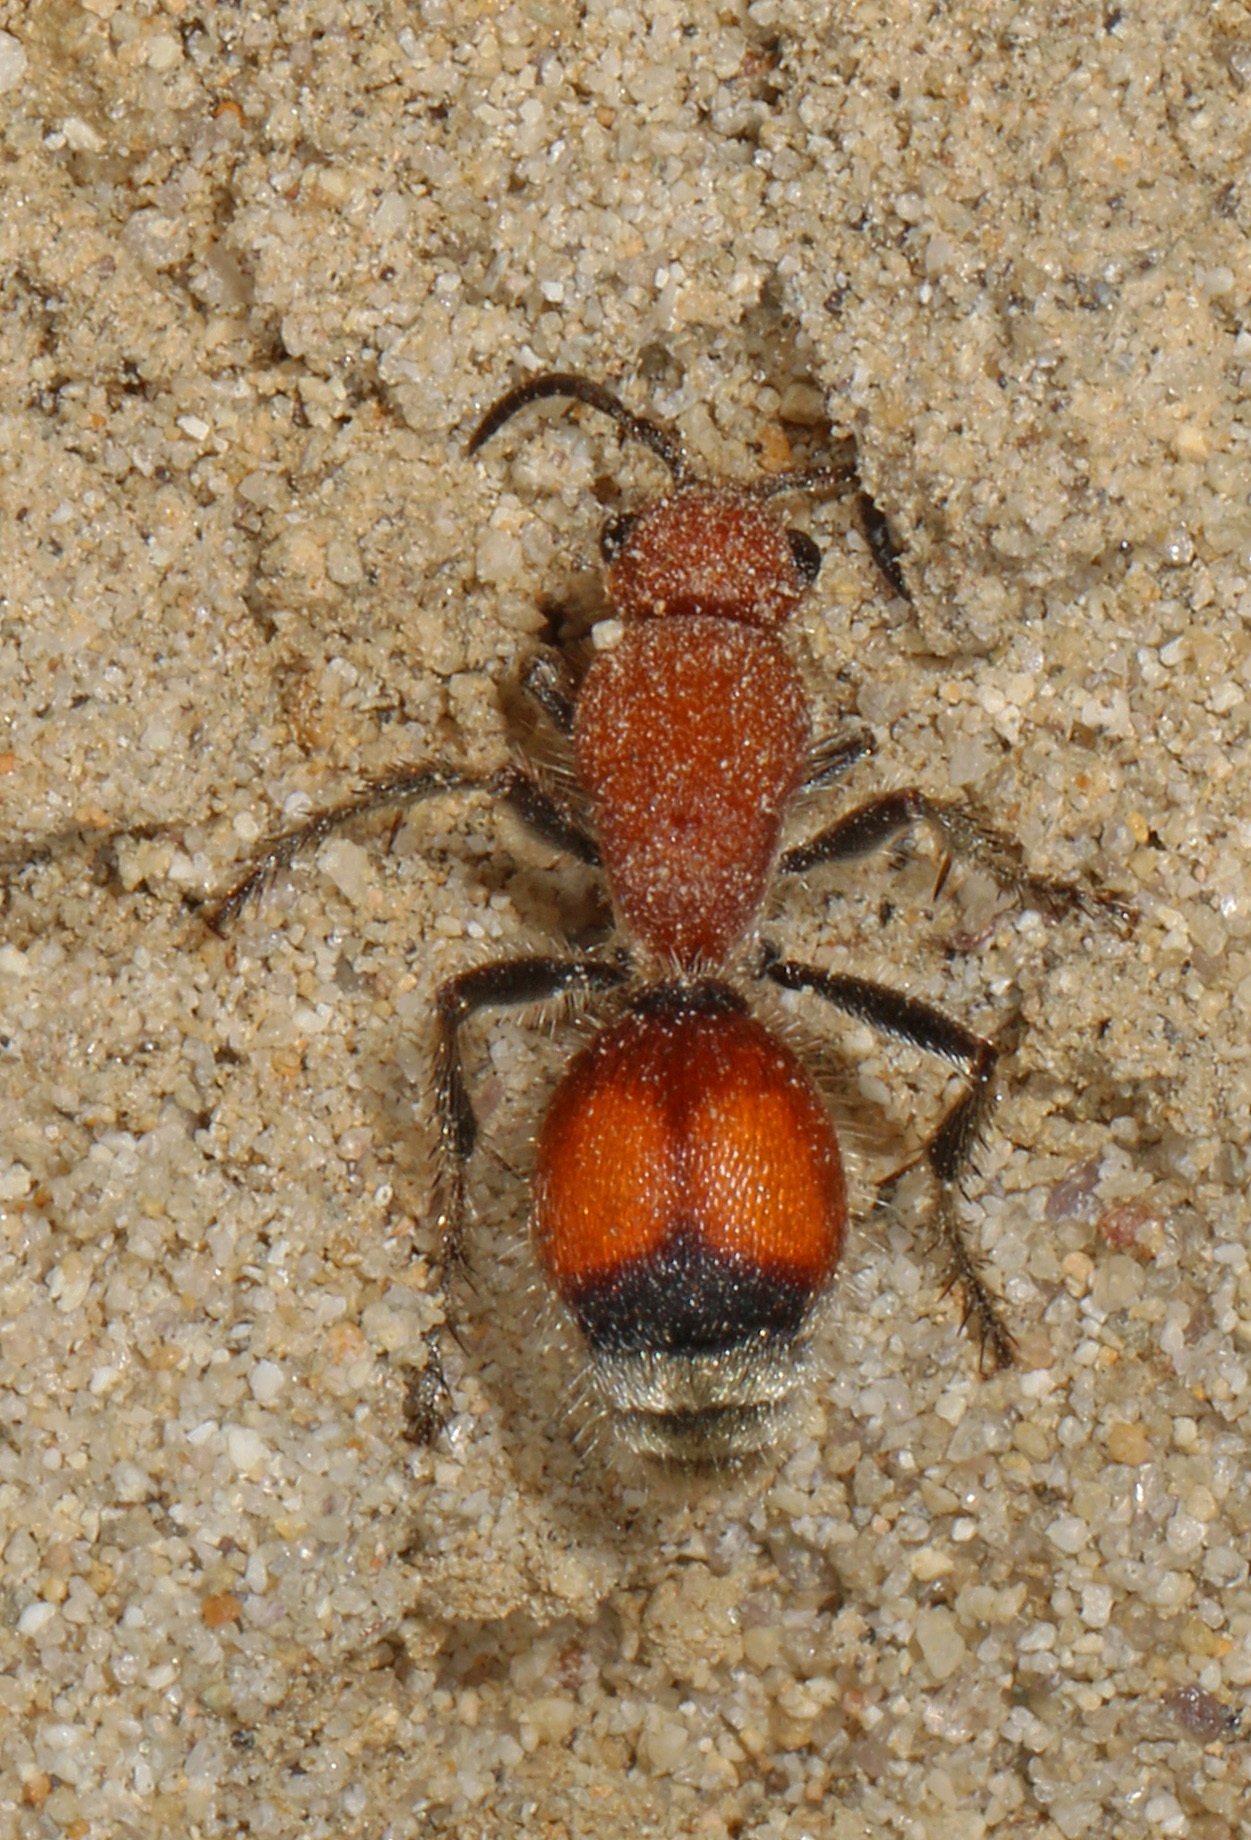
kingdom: Animalia
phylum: Arthropoda
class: Insecta
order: Hymenoptera
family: Mutillidae
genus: Dasymutilla
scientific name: Dasymutilla
